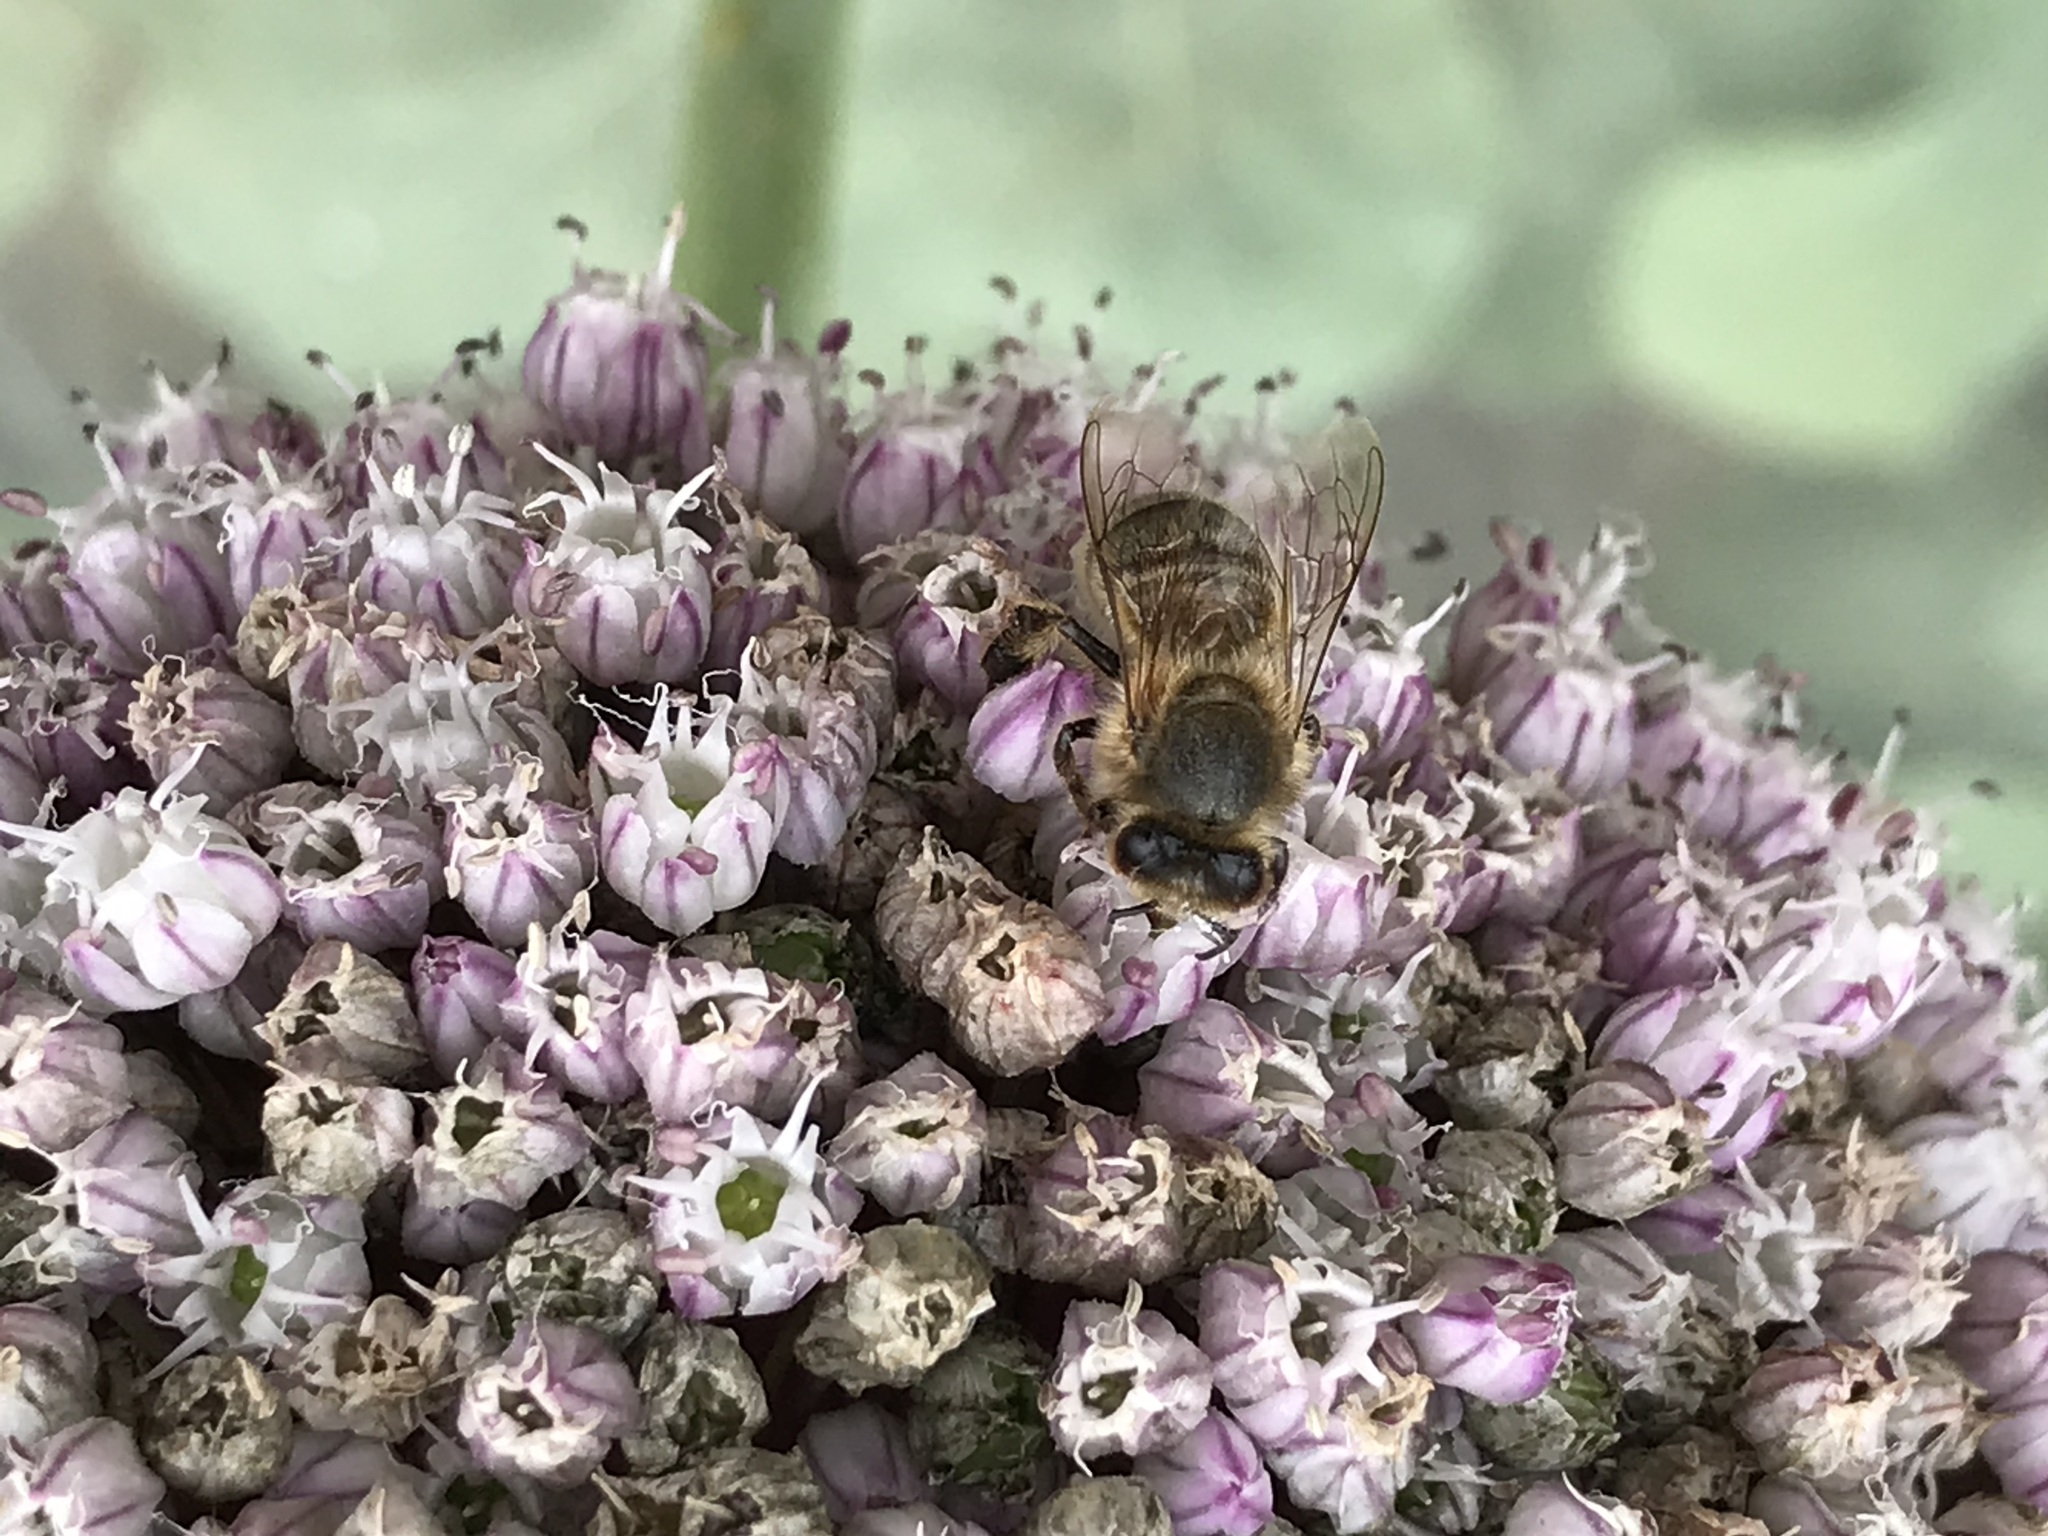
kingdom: Animalia
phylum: Arthropoda
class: Insecta
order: Hymenoptera
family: Apidae
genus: Apis
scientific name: Apis mellifera
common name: Honey bee
